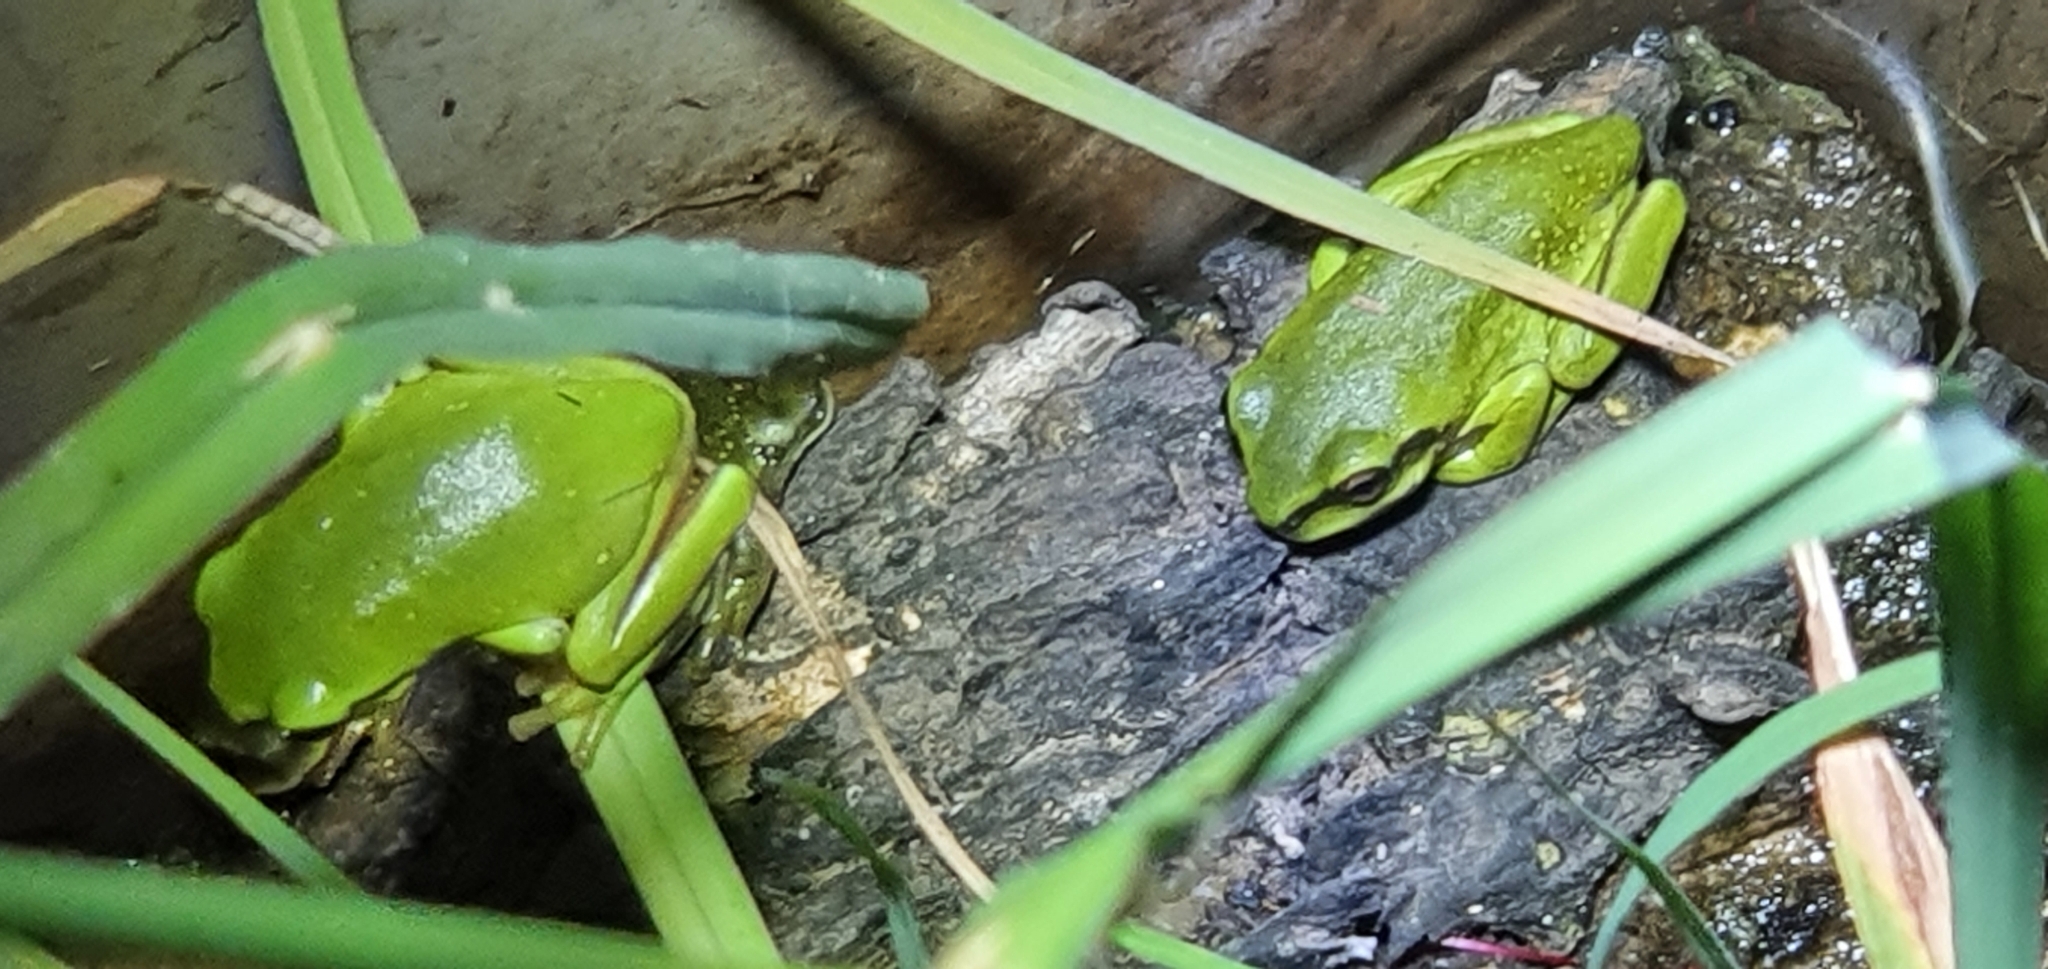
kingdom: Animalia
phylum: Chordata
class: Amphibia
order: Anura
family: Pelodryadidae
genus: Ranoidea
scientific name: Ranoidea caerulea
